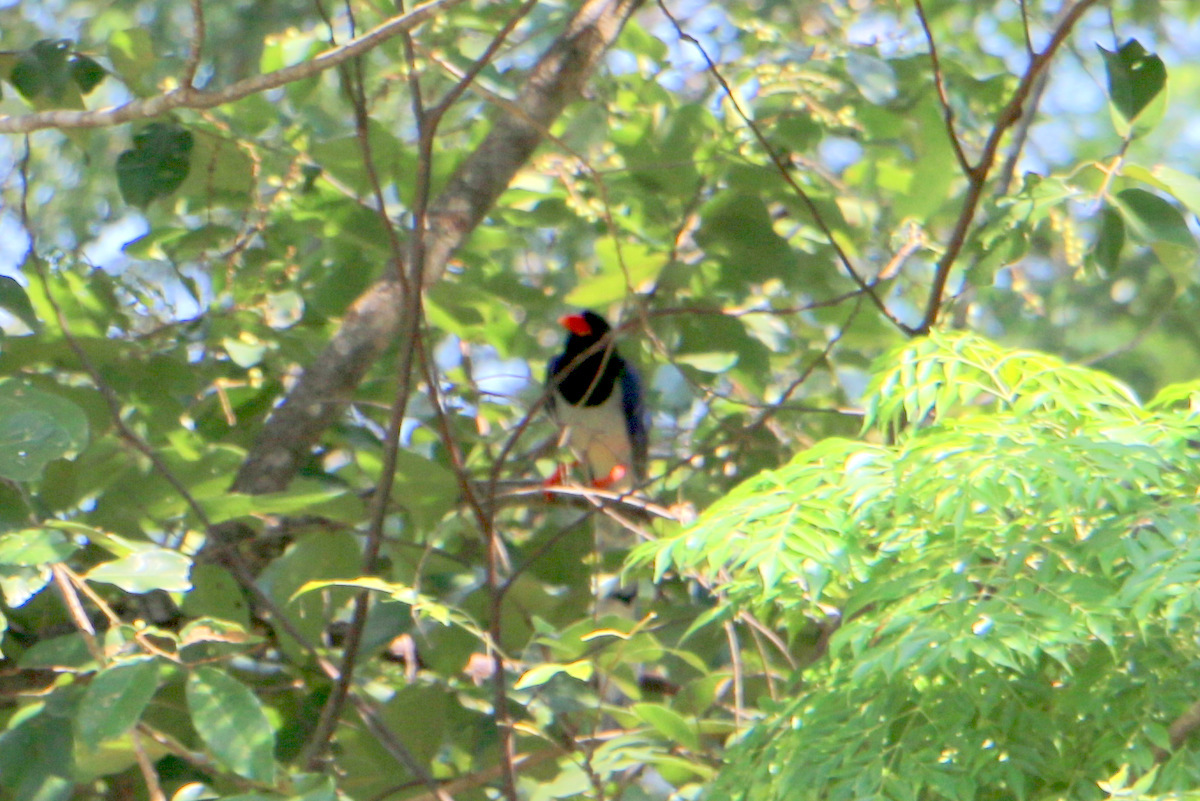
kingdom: Animalia
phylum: Chordata
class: Aves
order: Passeriformes
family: Corvidae
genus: Urocissa
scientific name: Urocissa erythroryncha
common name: Red-billed blue magpie
